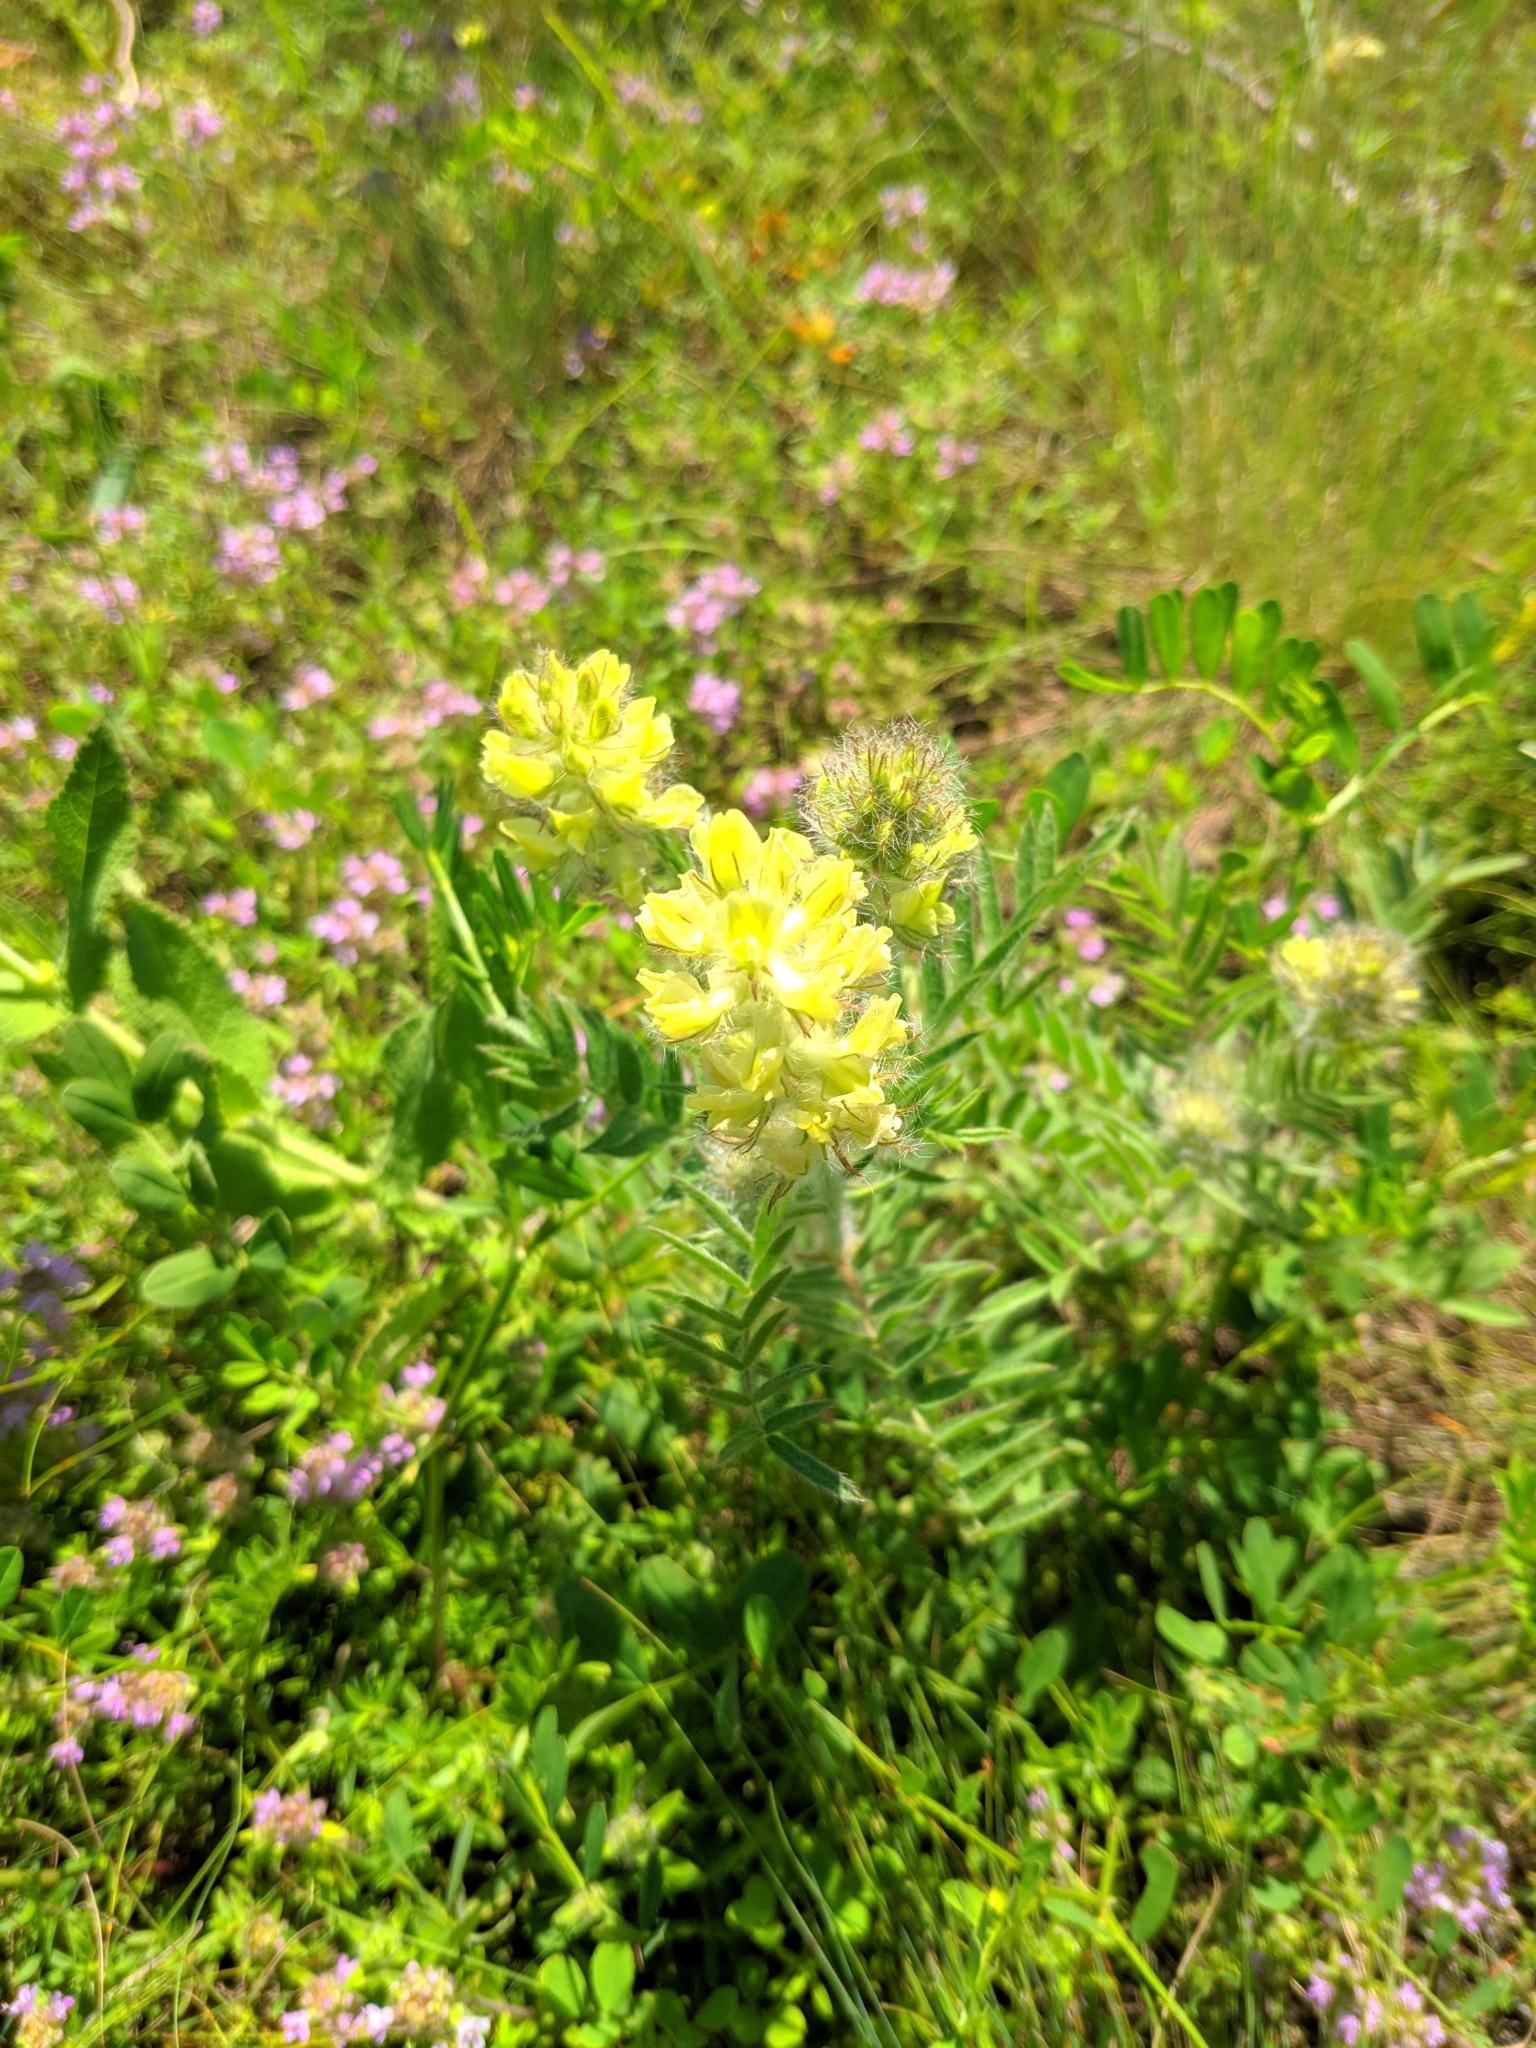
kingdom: Plantae
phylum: Tracheophyta
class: Magnoliopsida
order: Fabales
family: Fabaceae
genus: Oxytropis
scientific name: Oxytropis pilosa
